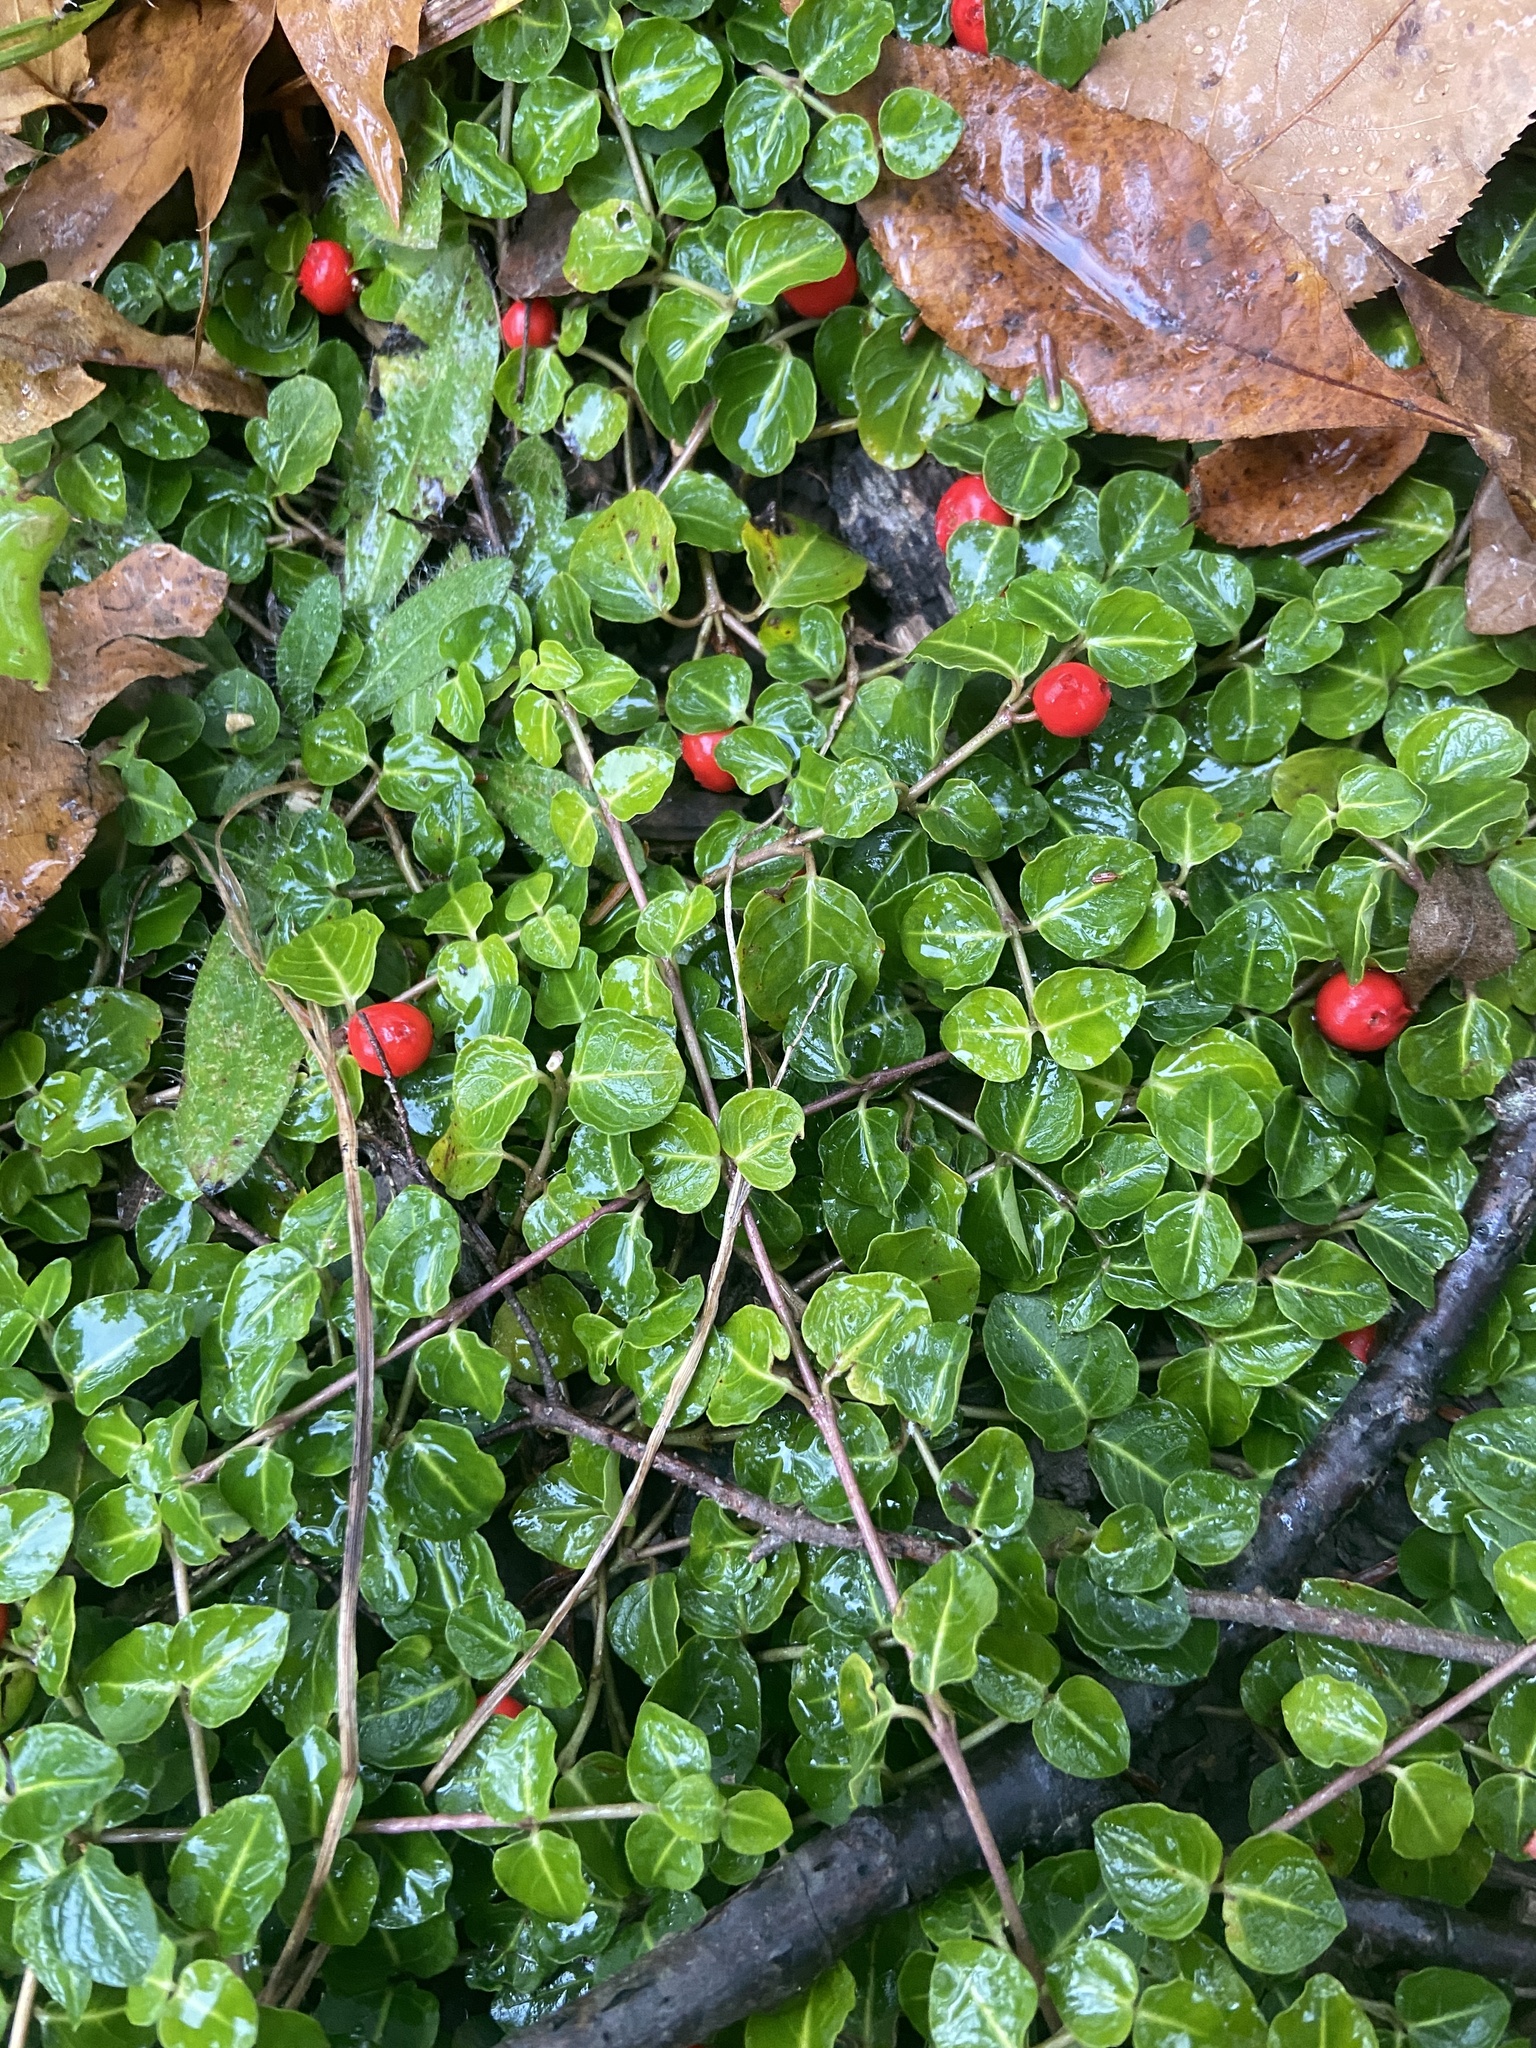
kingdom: Plantae
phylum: Tracheophyta
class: Magnoliopsida
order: Gentianales
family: Rubiaceae
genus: Mitchella
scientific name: Mitchella repens
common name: Partridge-berry
